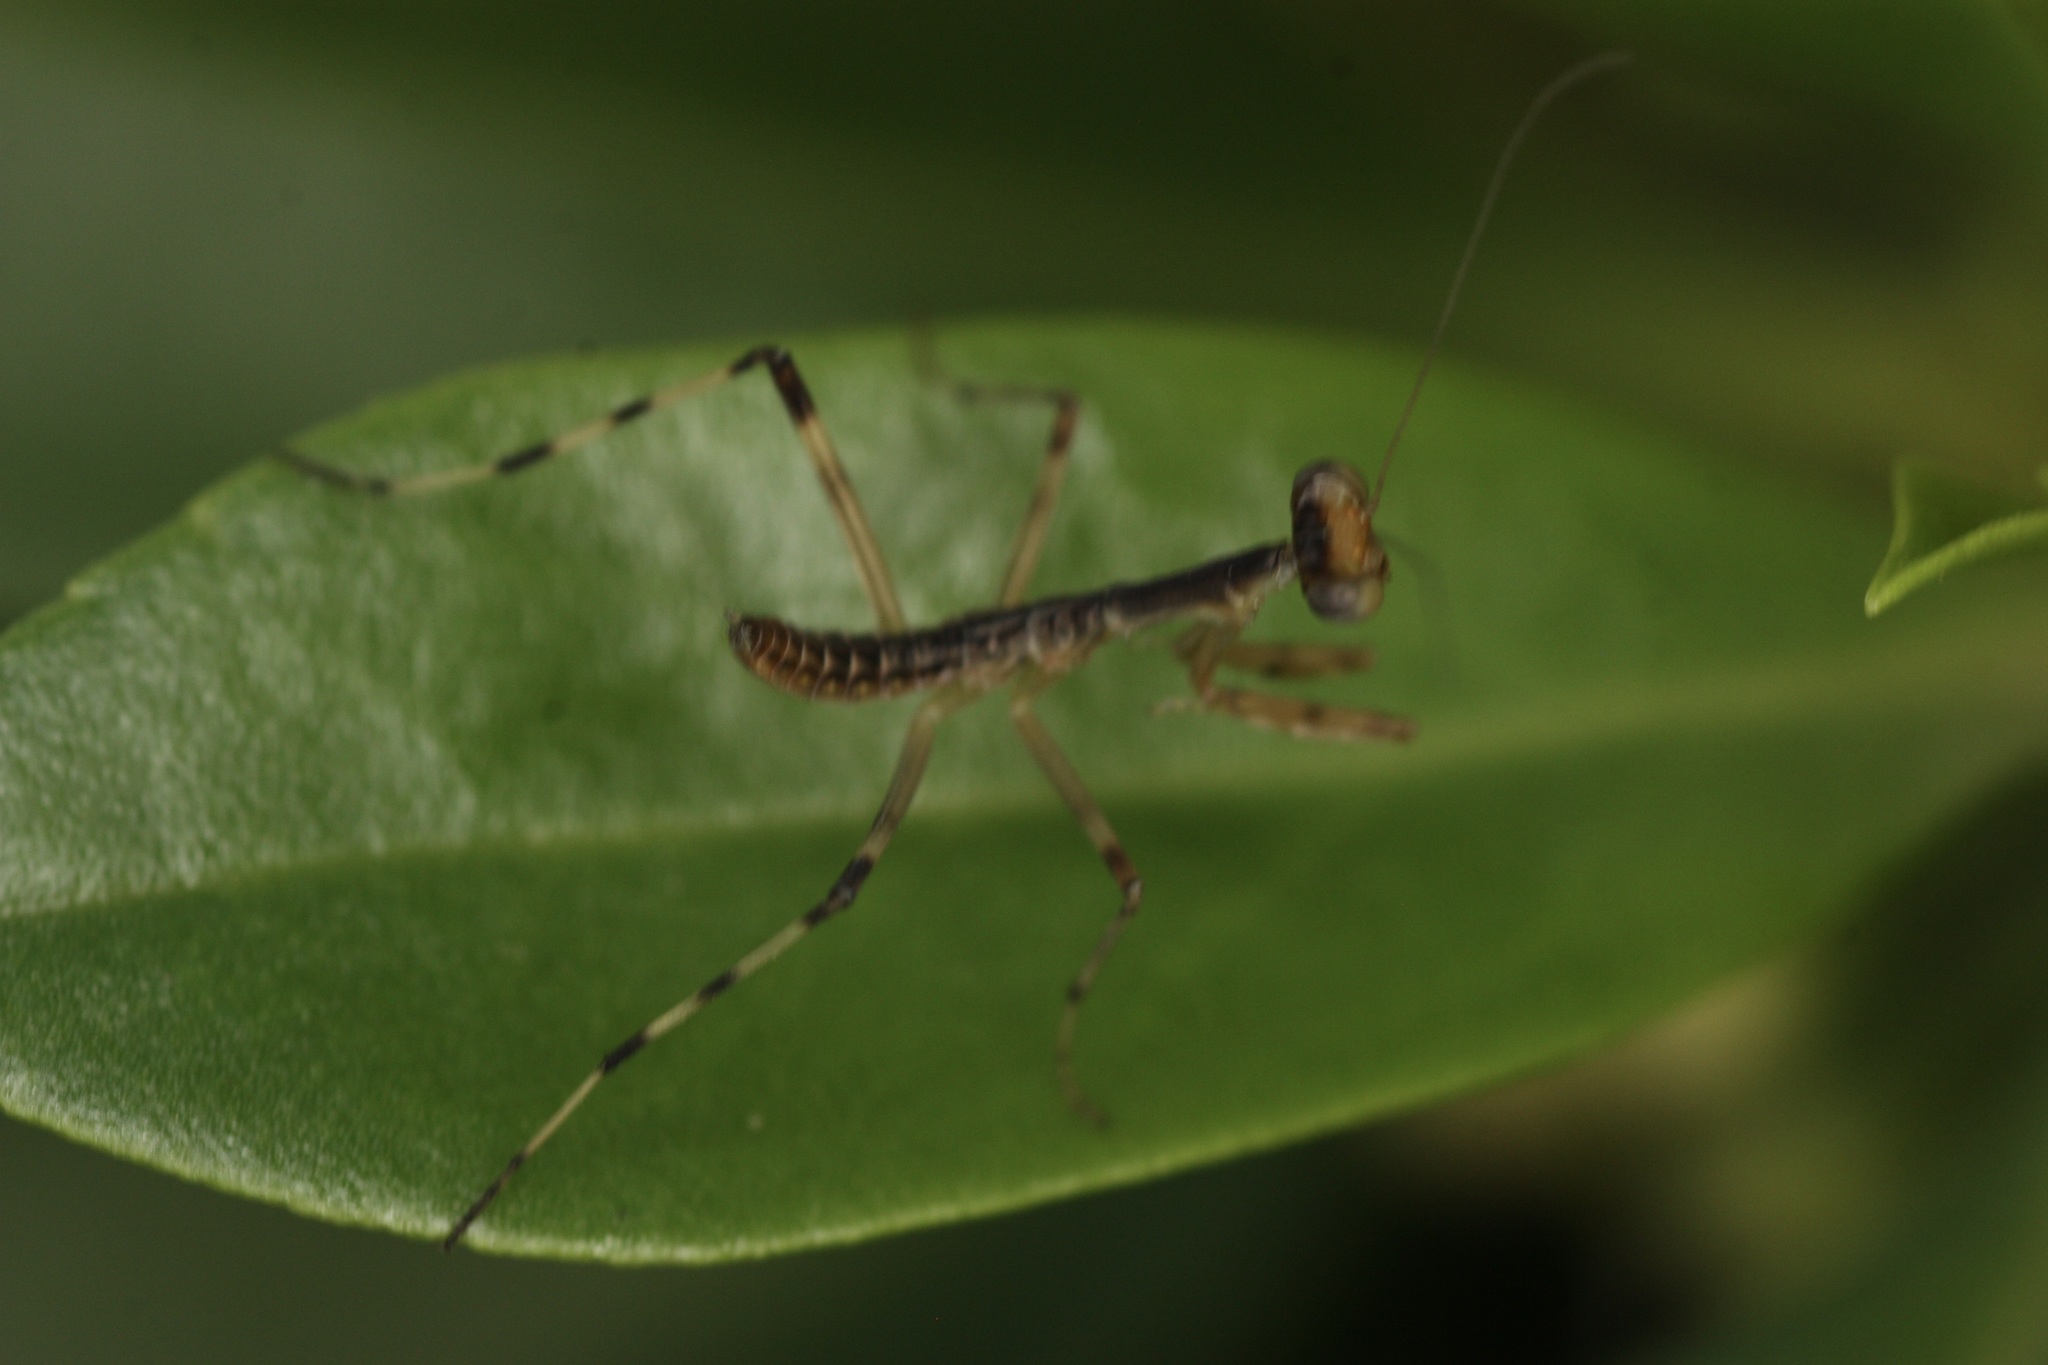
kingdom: Animalia
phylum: Arthropoda
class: Insecta
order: Mantodea
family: Mantidae
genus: Hierodula
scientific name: Hierodula patellifera
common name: Asian mantis
